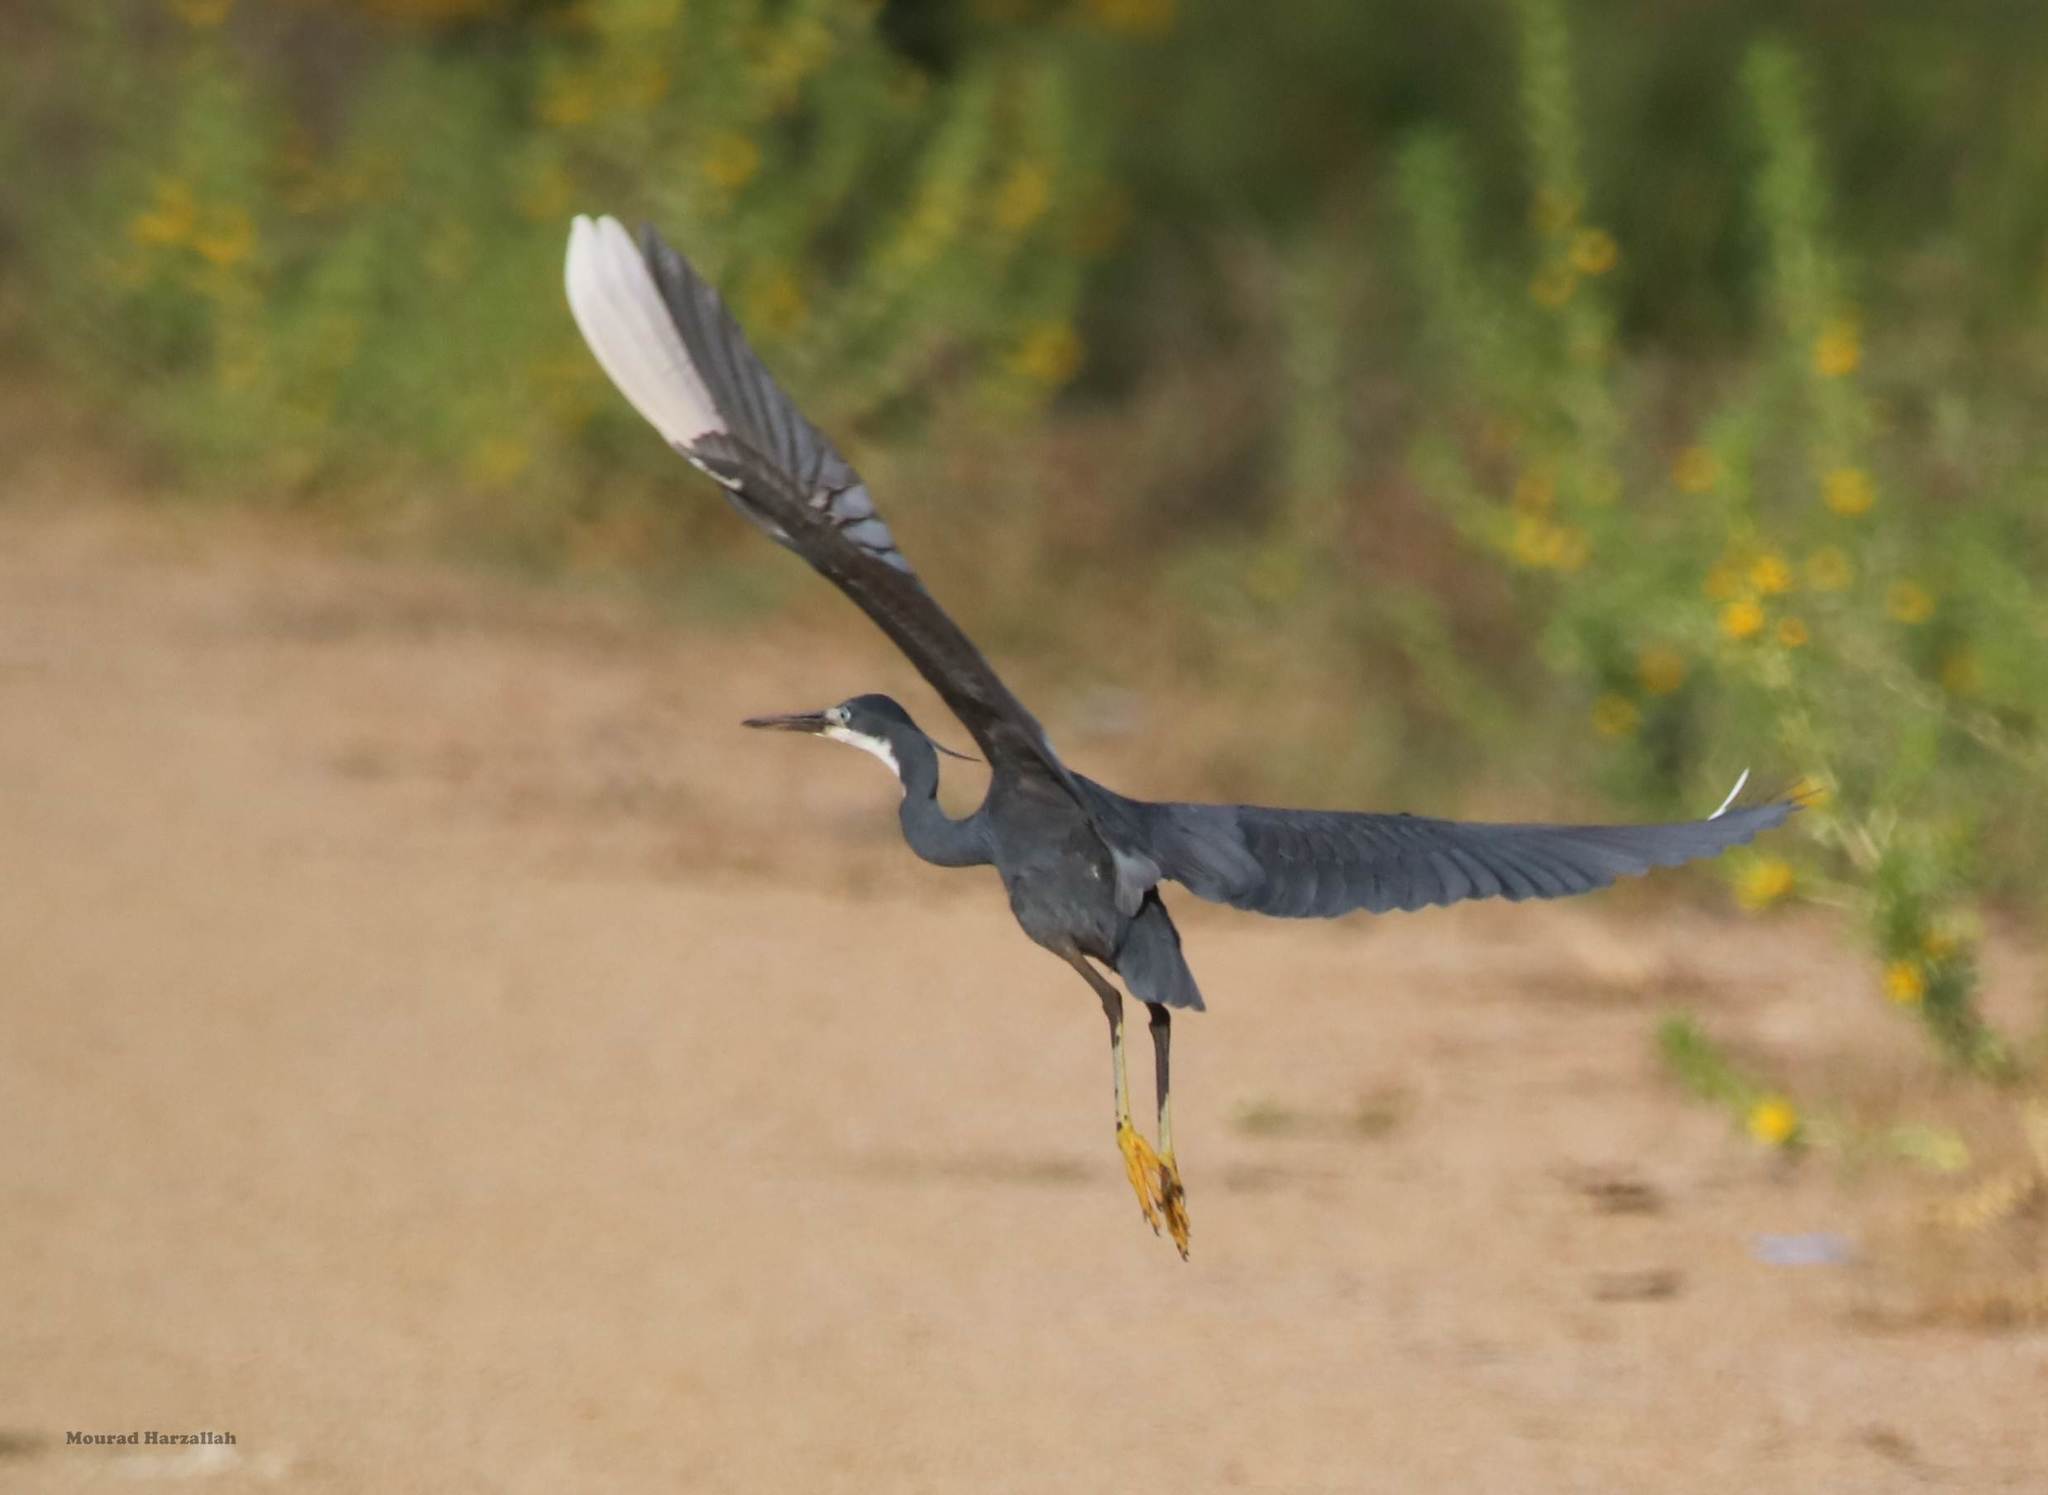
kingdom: Animalia
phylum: Chordata
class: Aves
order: Pelecaniformes
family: Ardeidae
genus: Egretta
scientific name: Egretta gularis
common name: Western reef-heron
